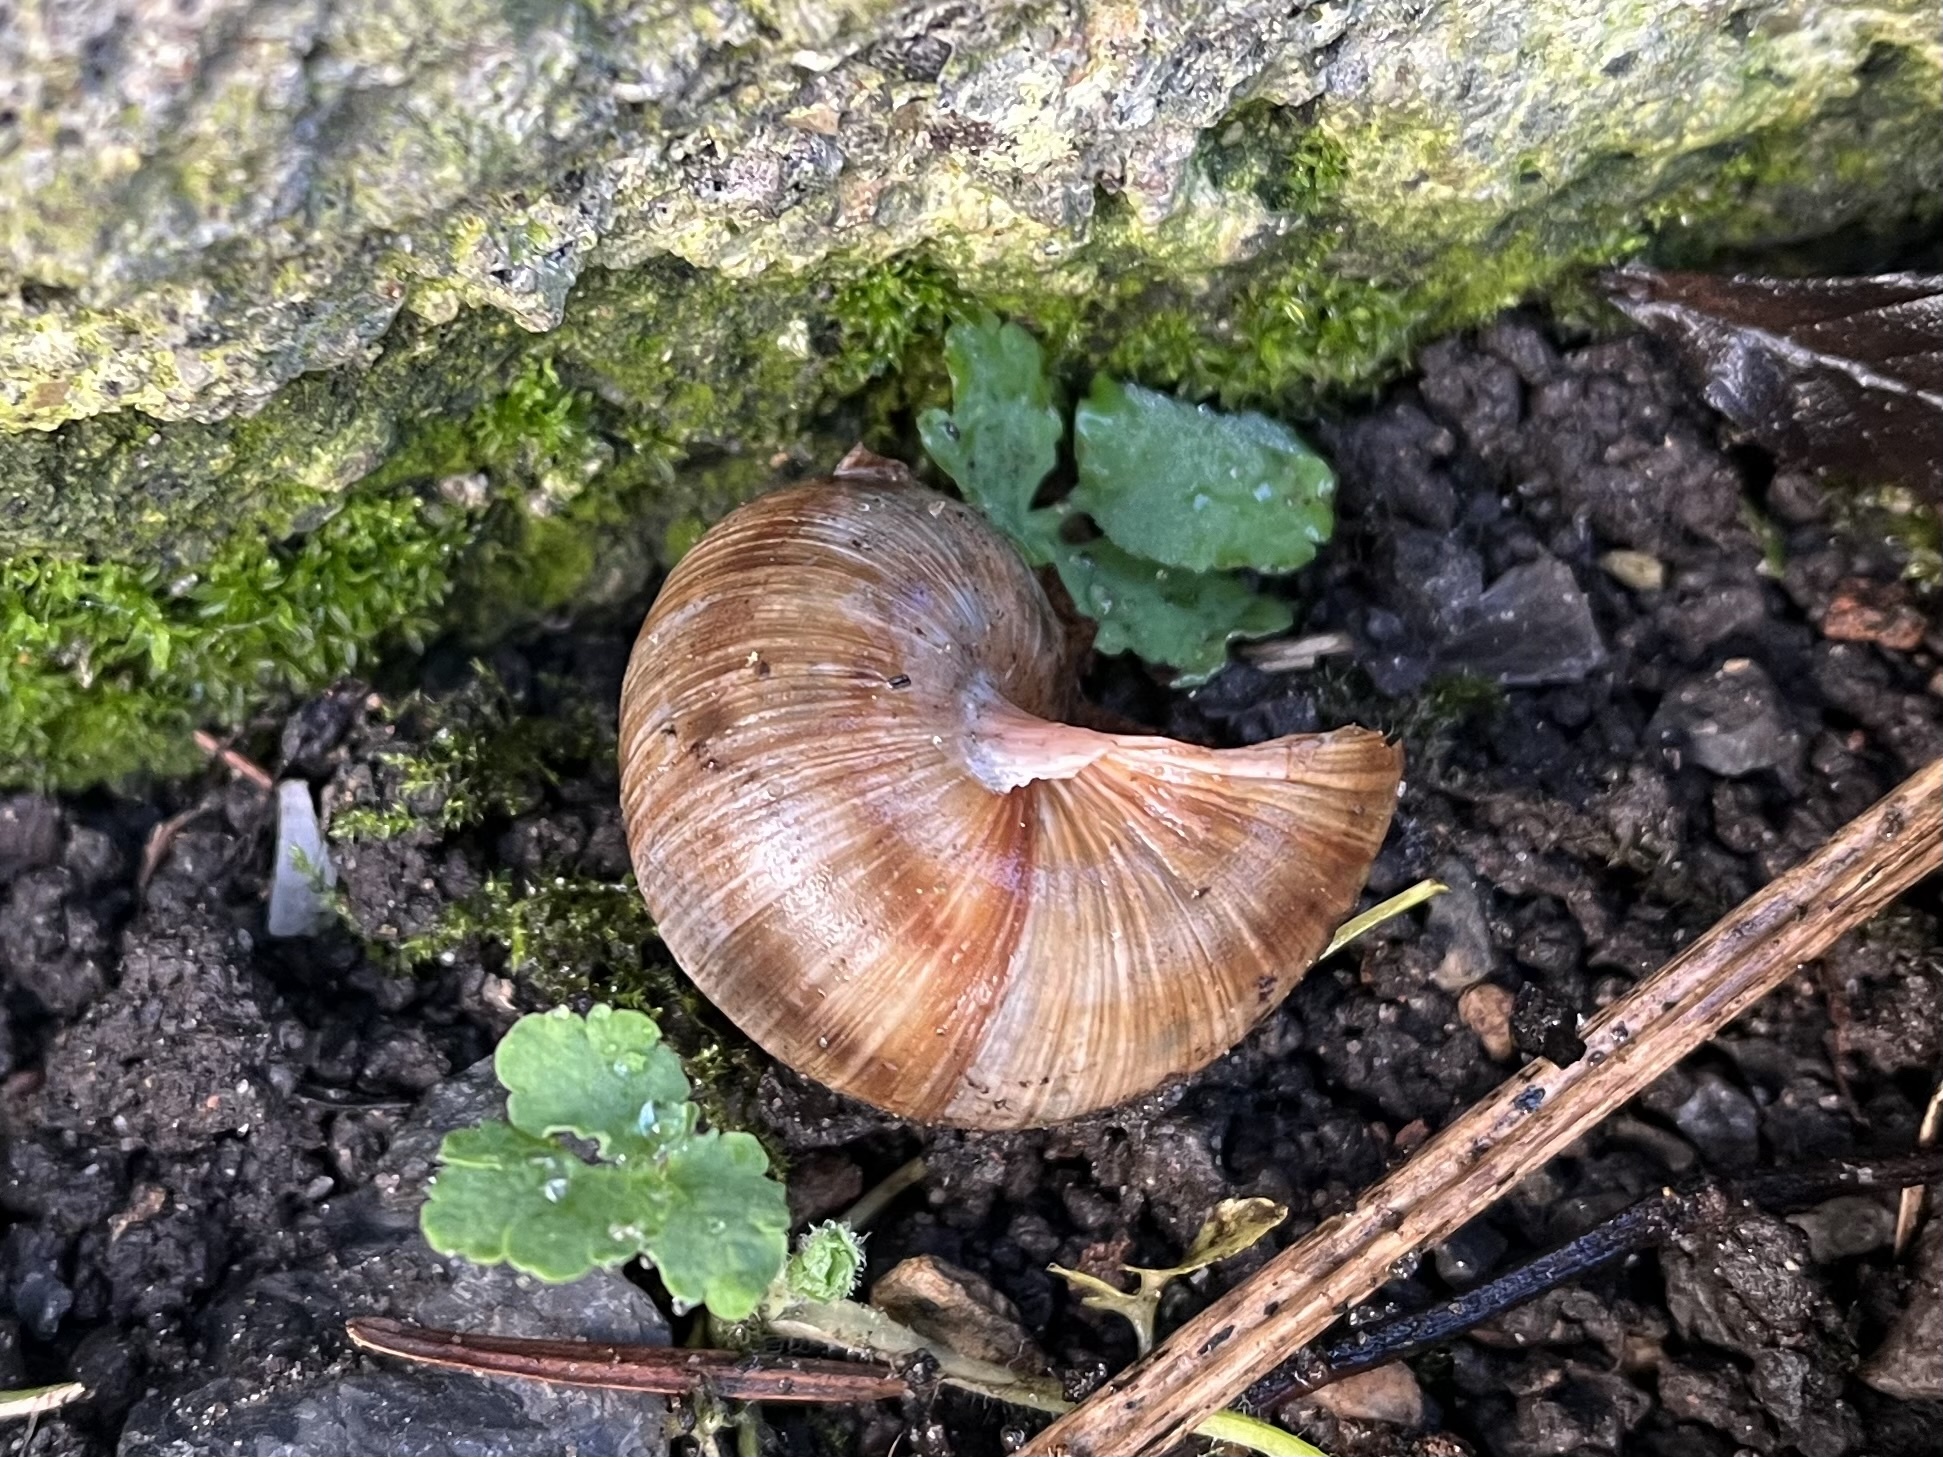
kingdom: Animalia
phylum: Mollusca
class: Gastropoda
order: Stylommatophora
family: Helicidae
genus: Helix
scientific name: Helix pomatia
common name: Roman snail
